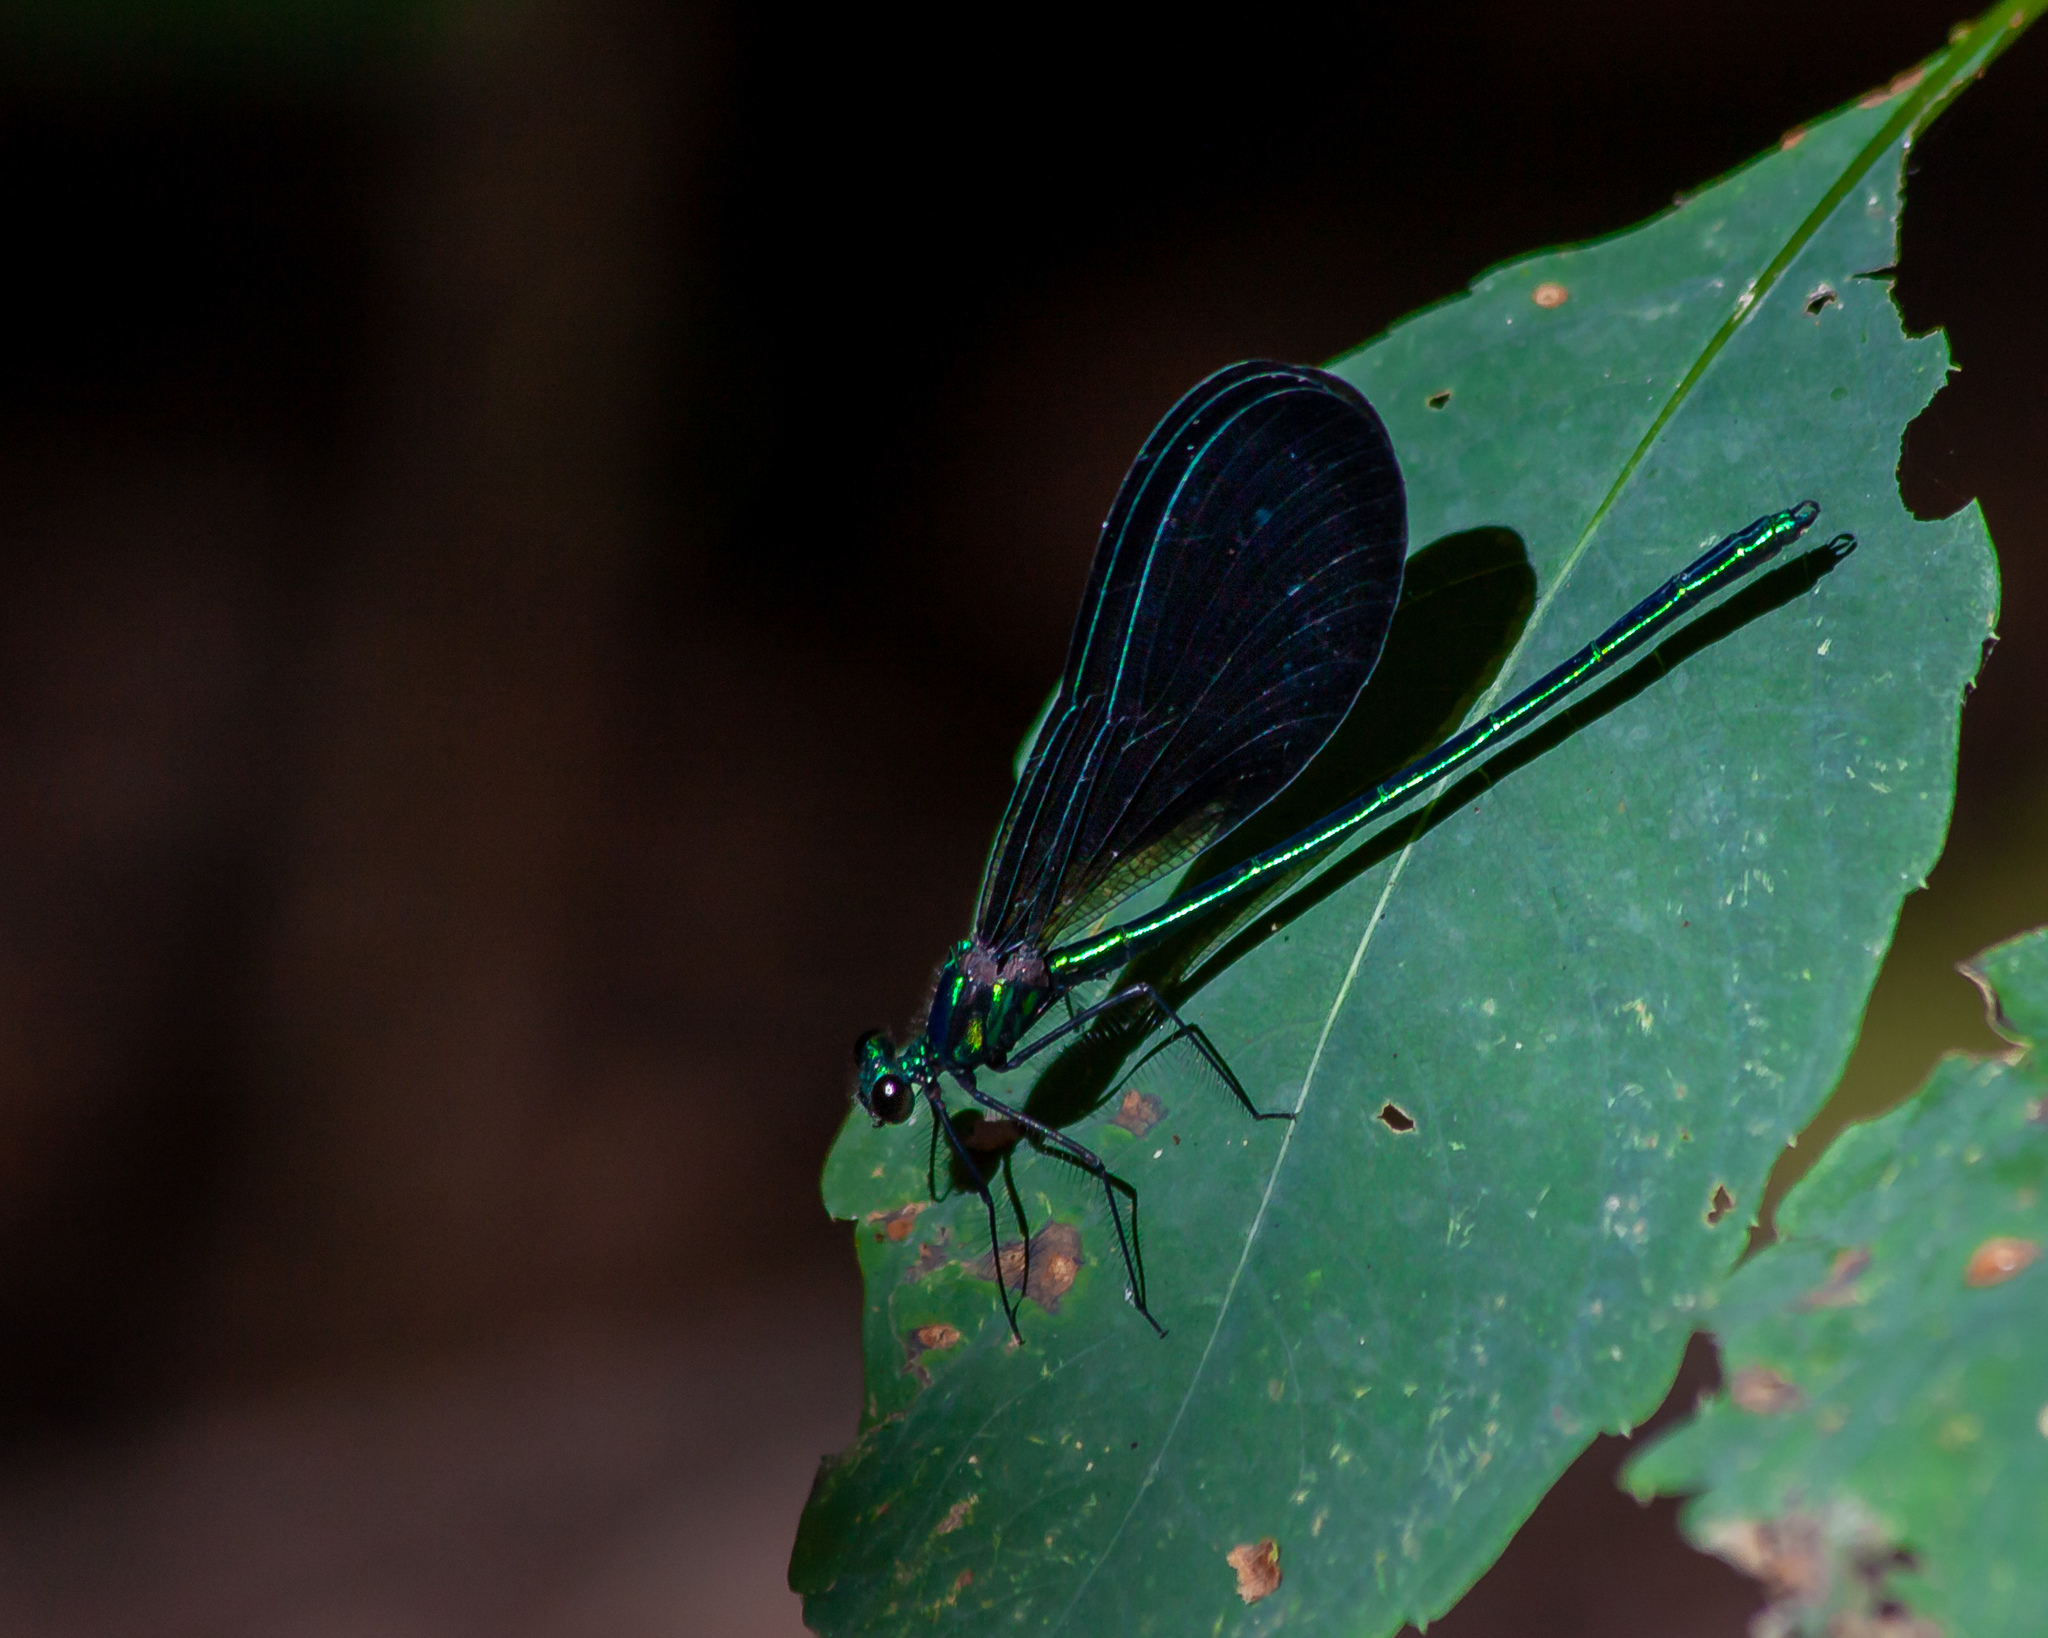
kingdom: Animalia
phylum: Arthropoda
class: Insecta
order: Odonata
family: Calopterygidae
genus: Calopteryx
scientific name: Calopteryx maculata
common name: Ebony jewelwing
